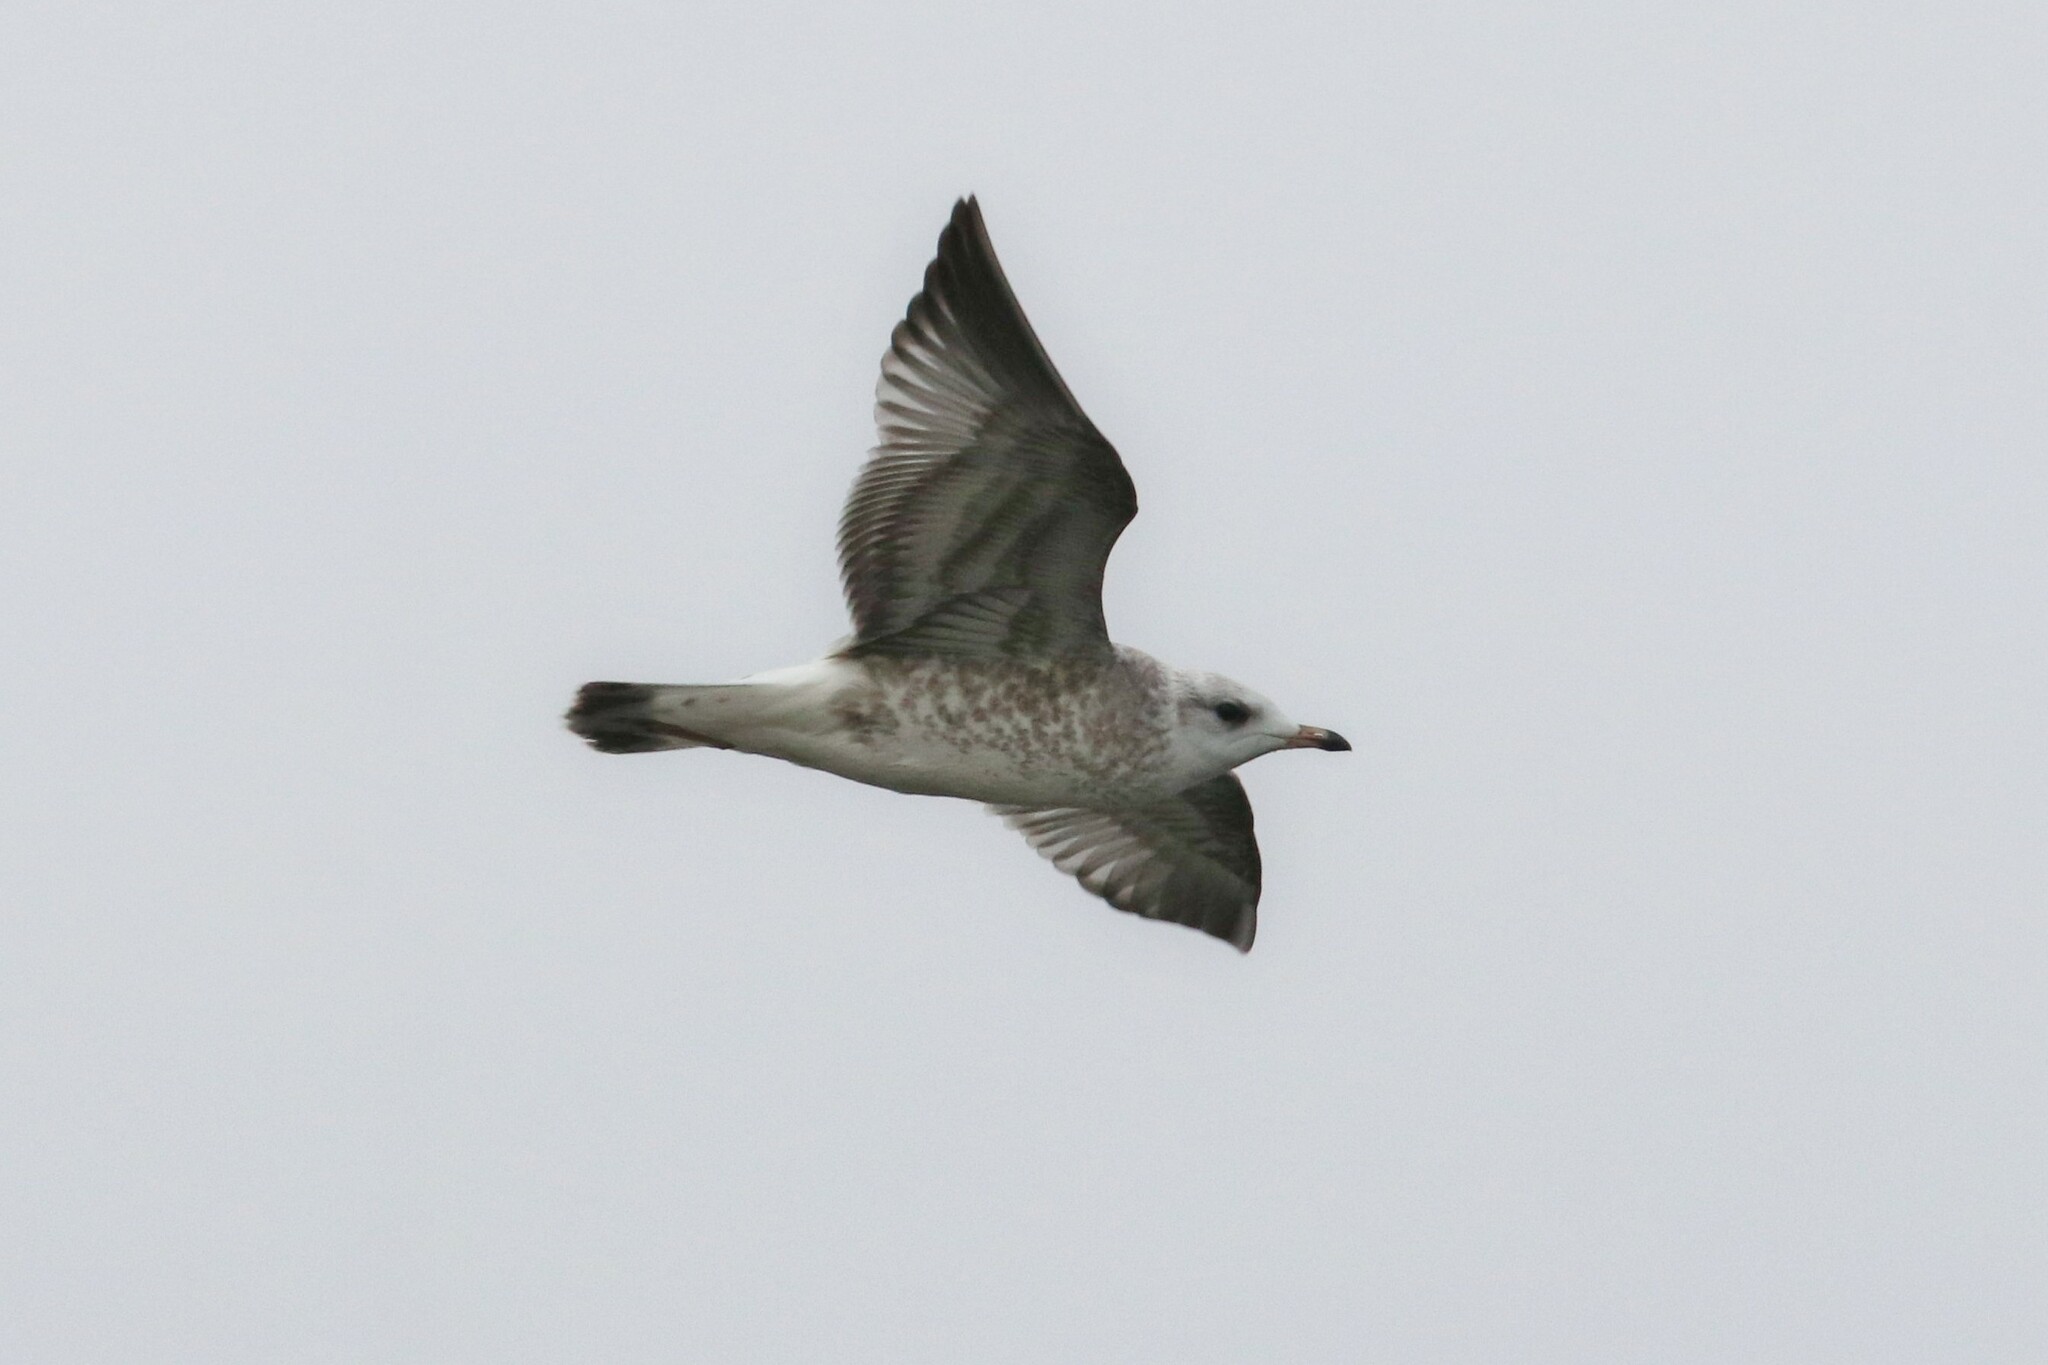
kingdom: Animalia
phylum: Chordata
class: Aves
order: Charadriiformes
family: Laridae
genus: Larus
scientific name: Larus canus
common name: Mew gull
